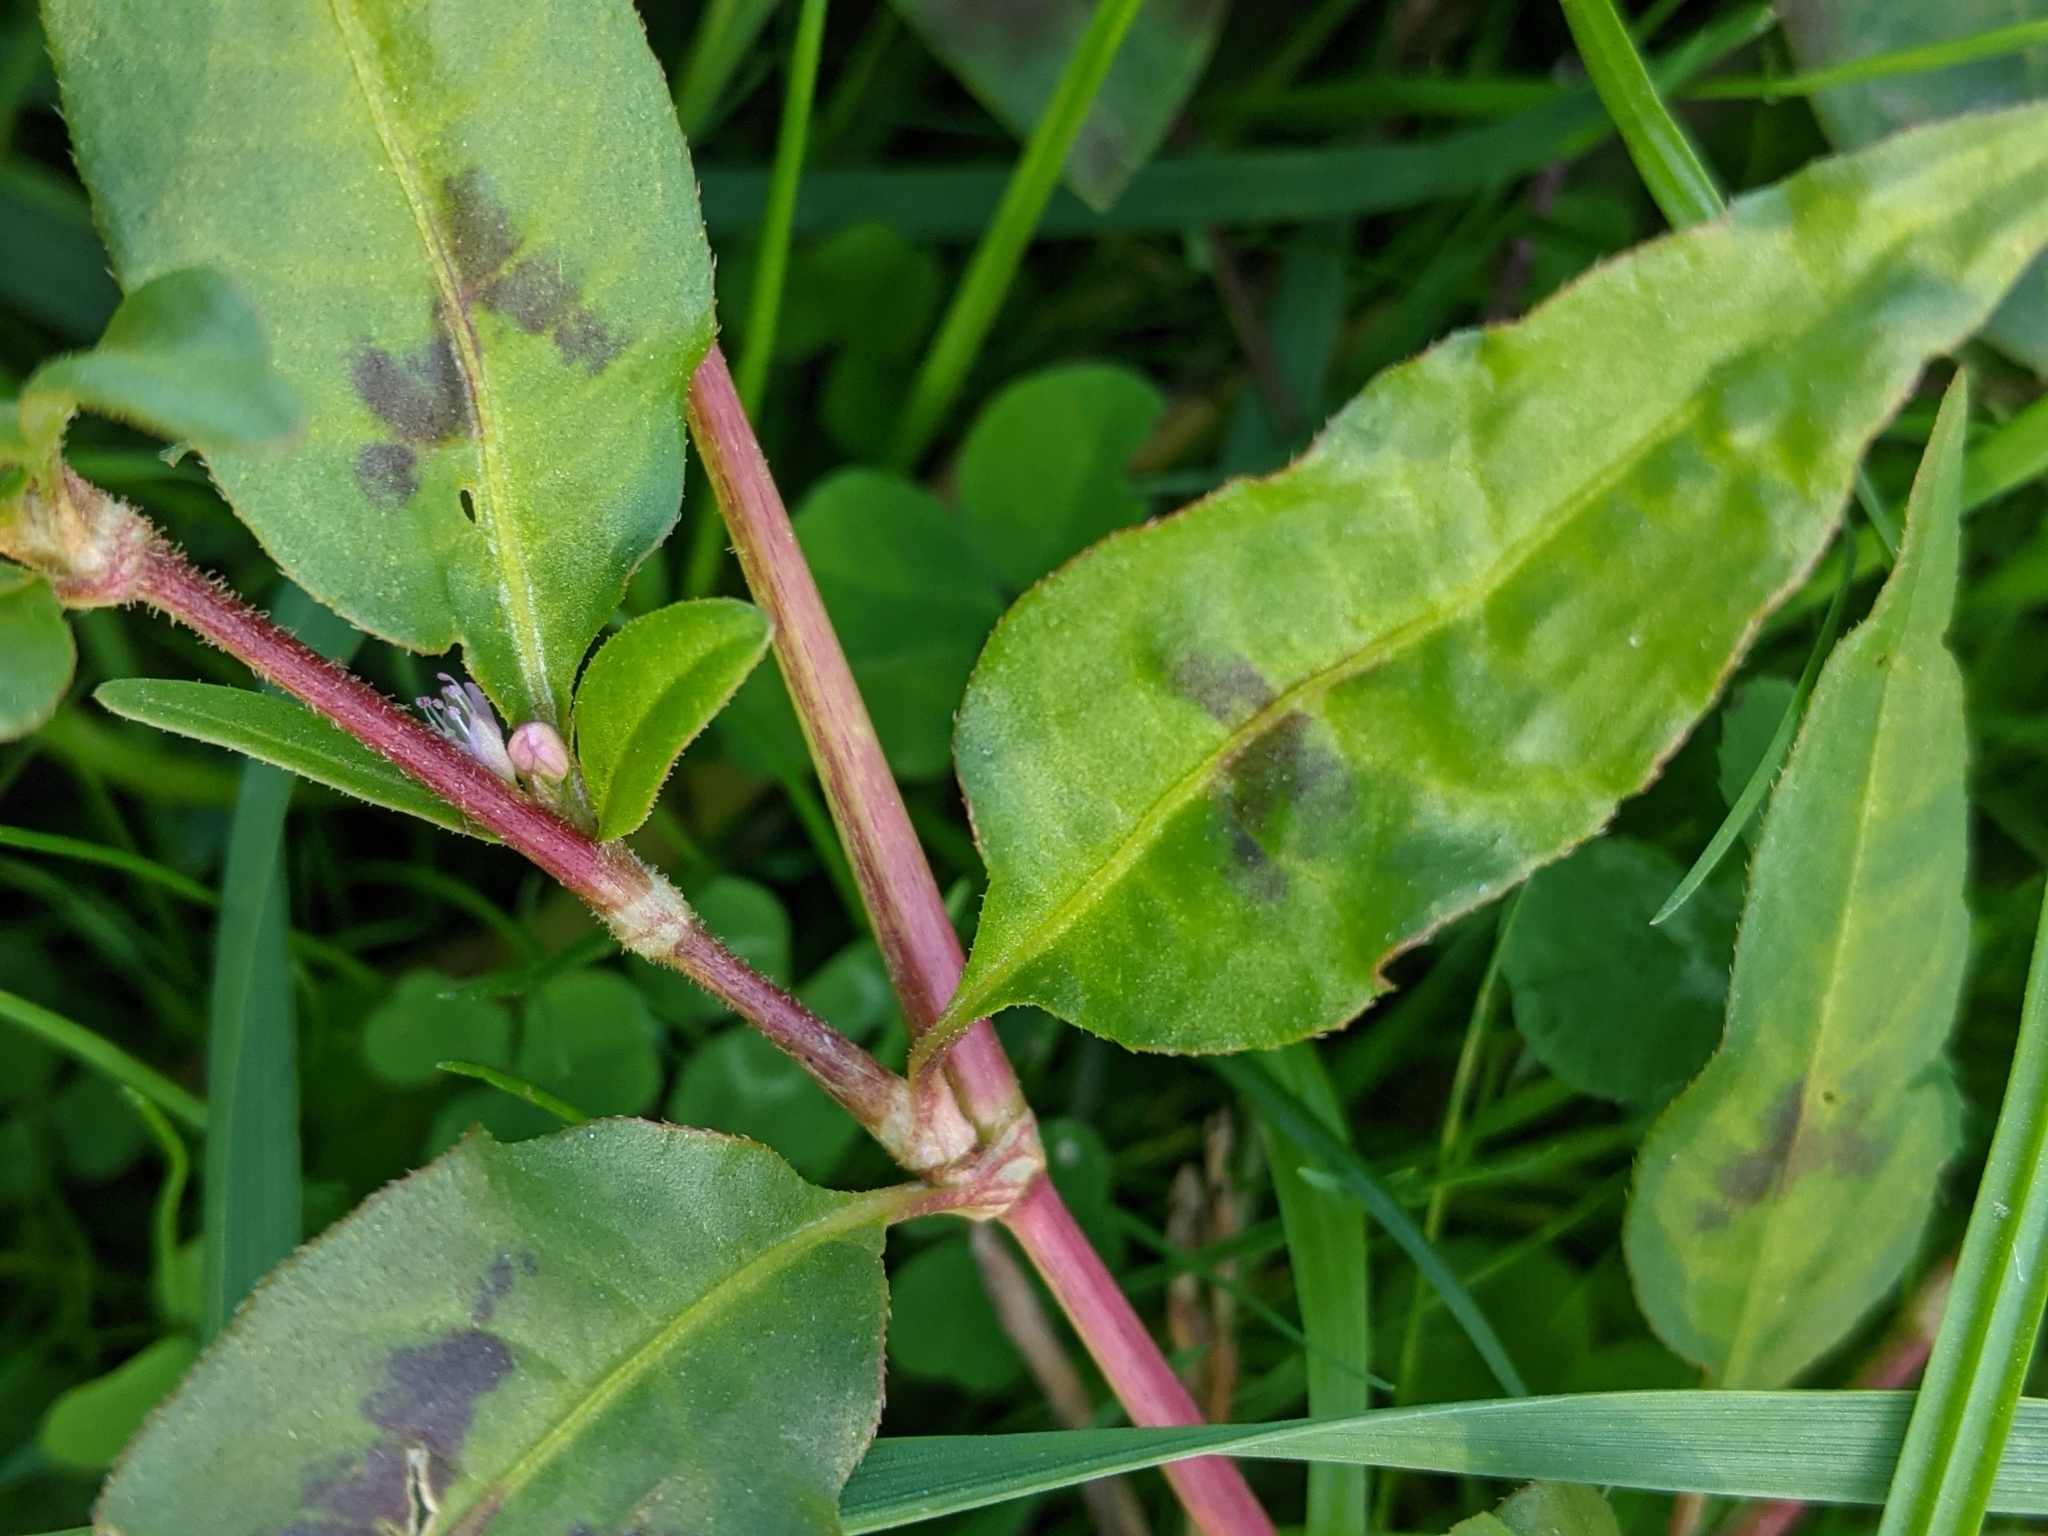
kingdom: Plantae
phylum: Tracheophyta
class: Magnoliopsida
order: Caryophyllales
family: Polygonaceae
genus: Persicaria
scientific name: Persicaria maculosa
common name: Redshank
